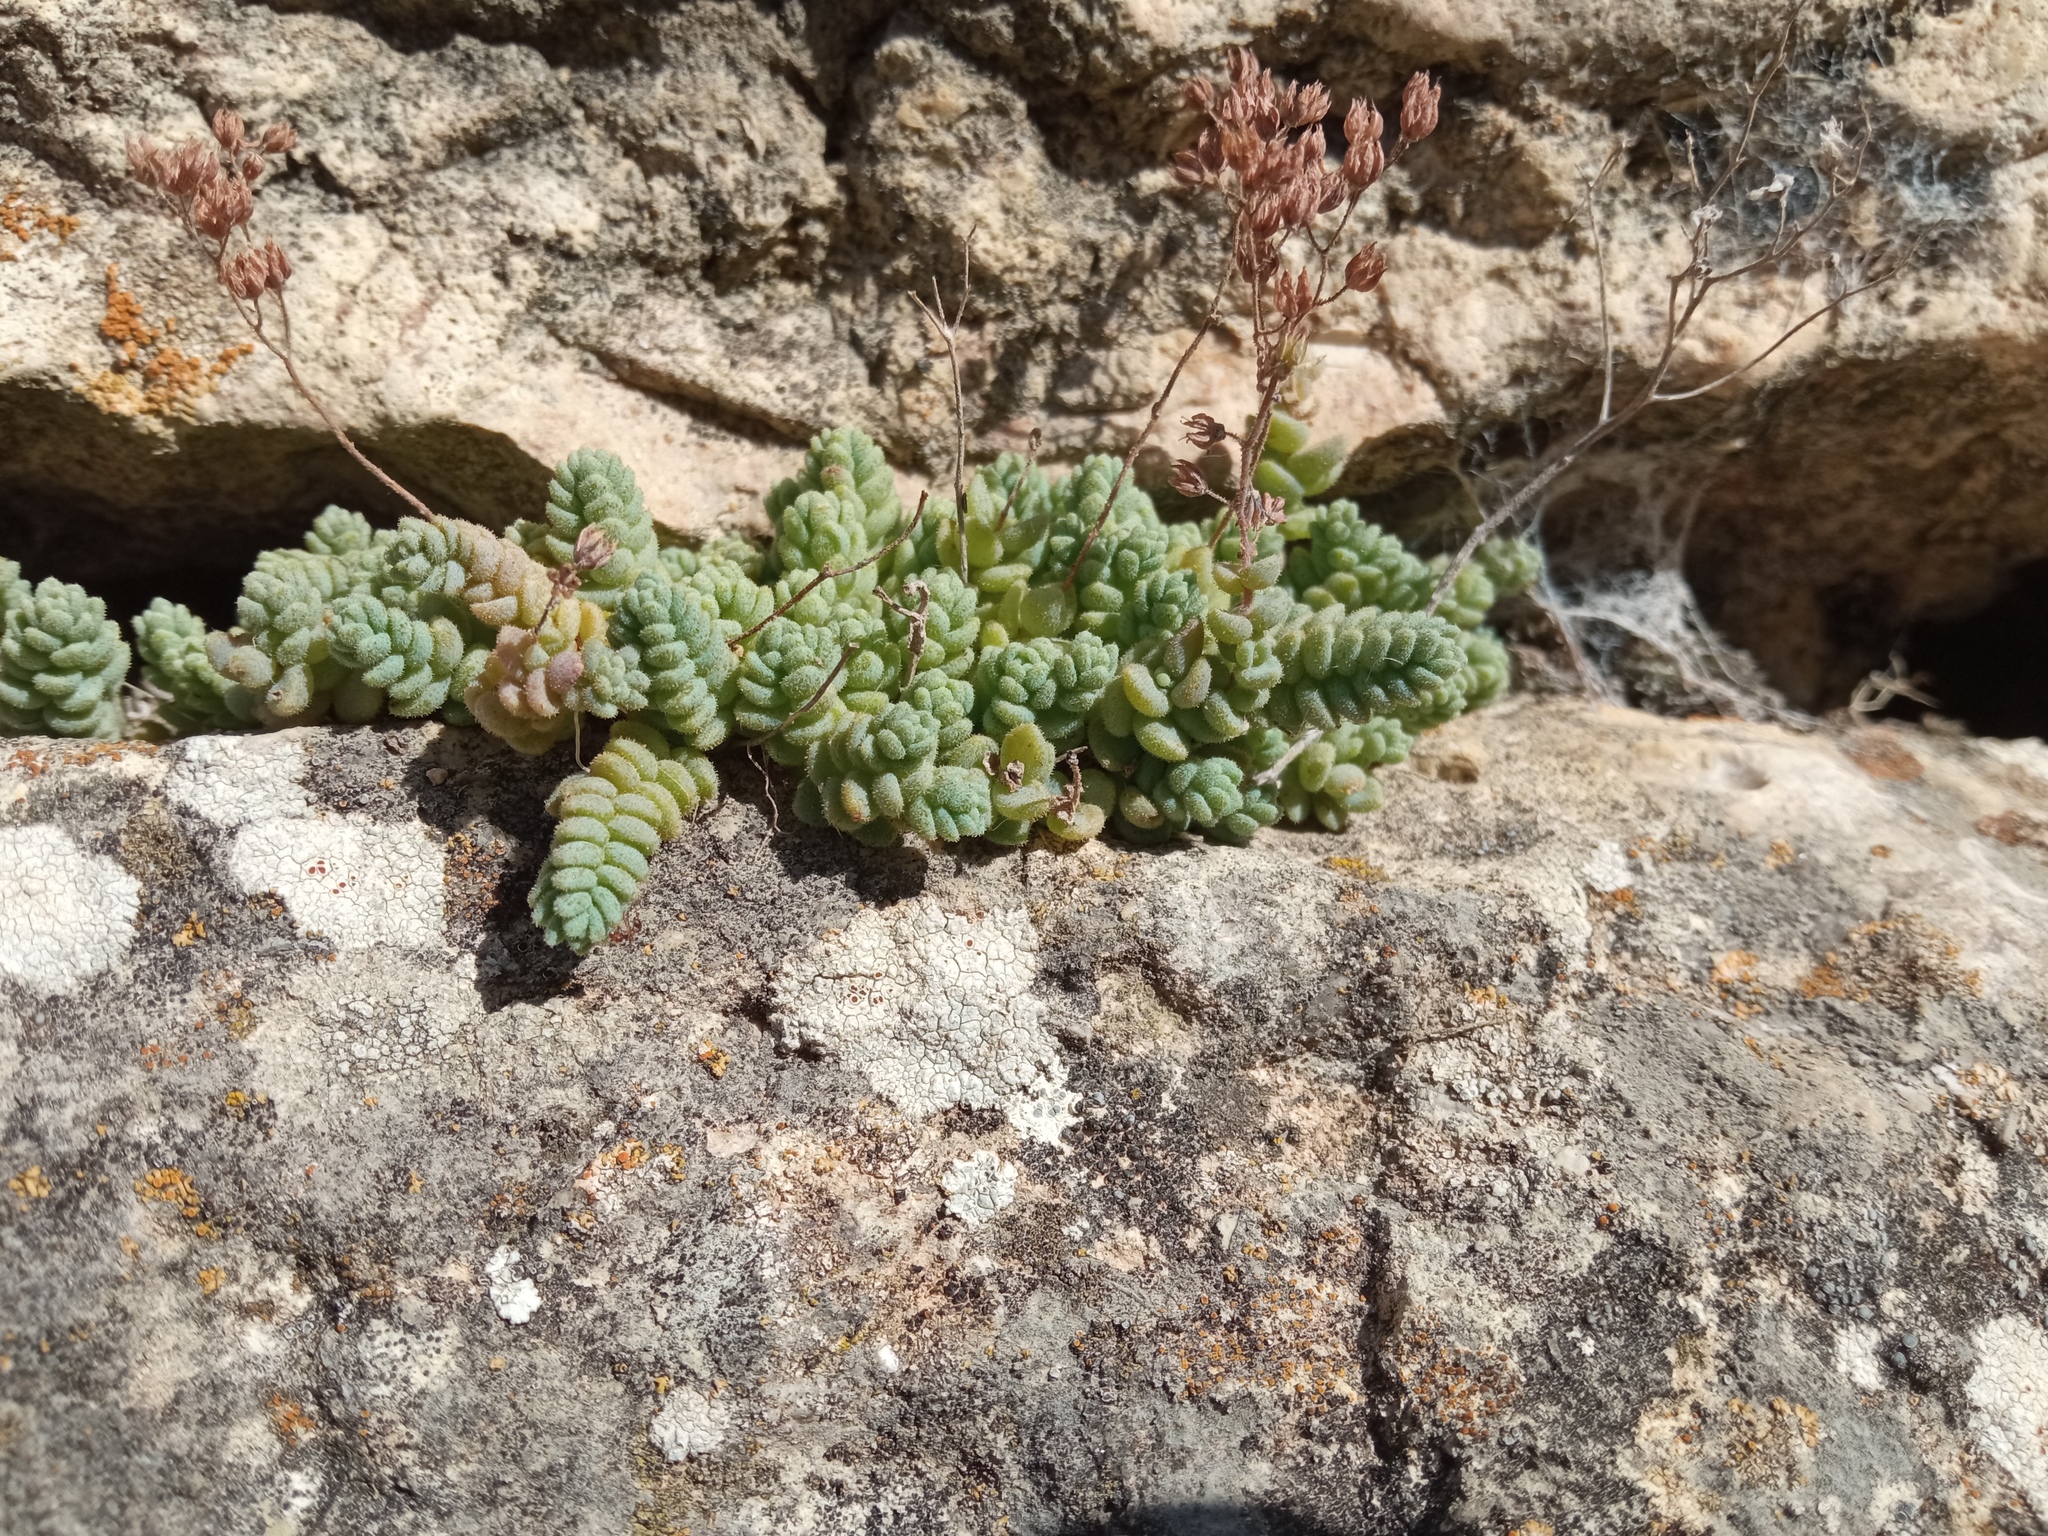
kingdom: Plantae
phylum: Tracheophyta
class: Magnoliopsida
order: Saxifragales
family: Crassulaceae
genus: Sedum
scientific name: Sedum dasyphyllum
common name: Thick-leaf stonecrop
